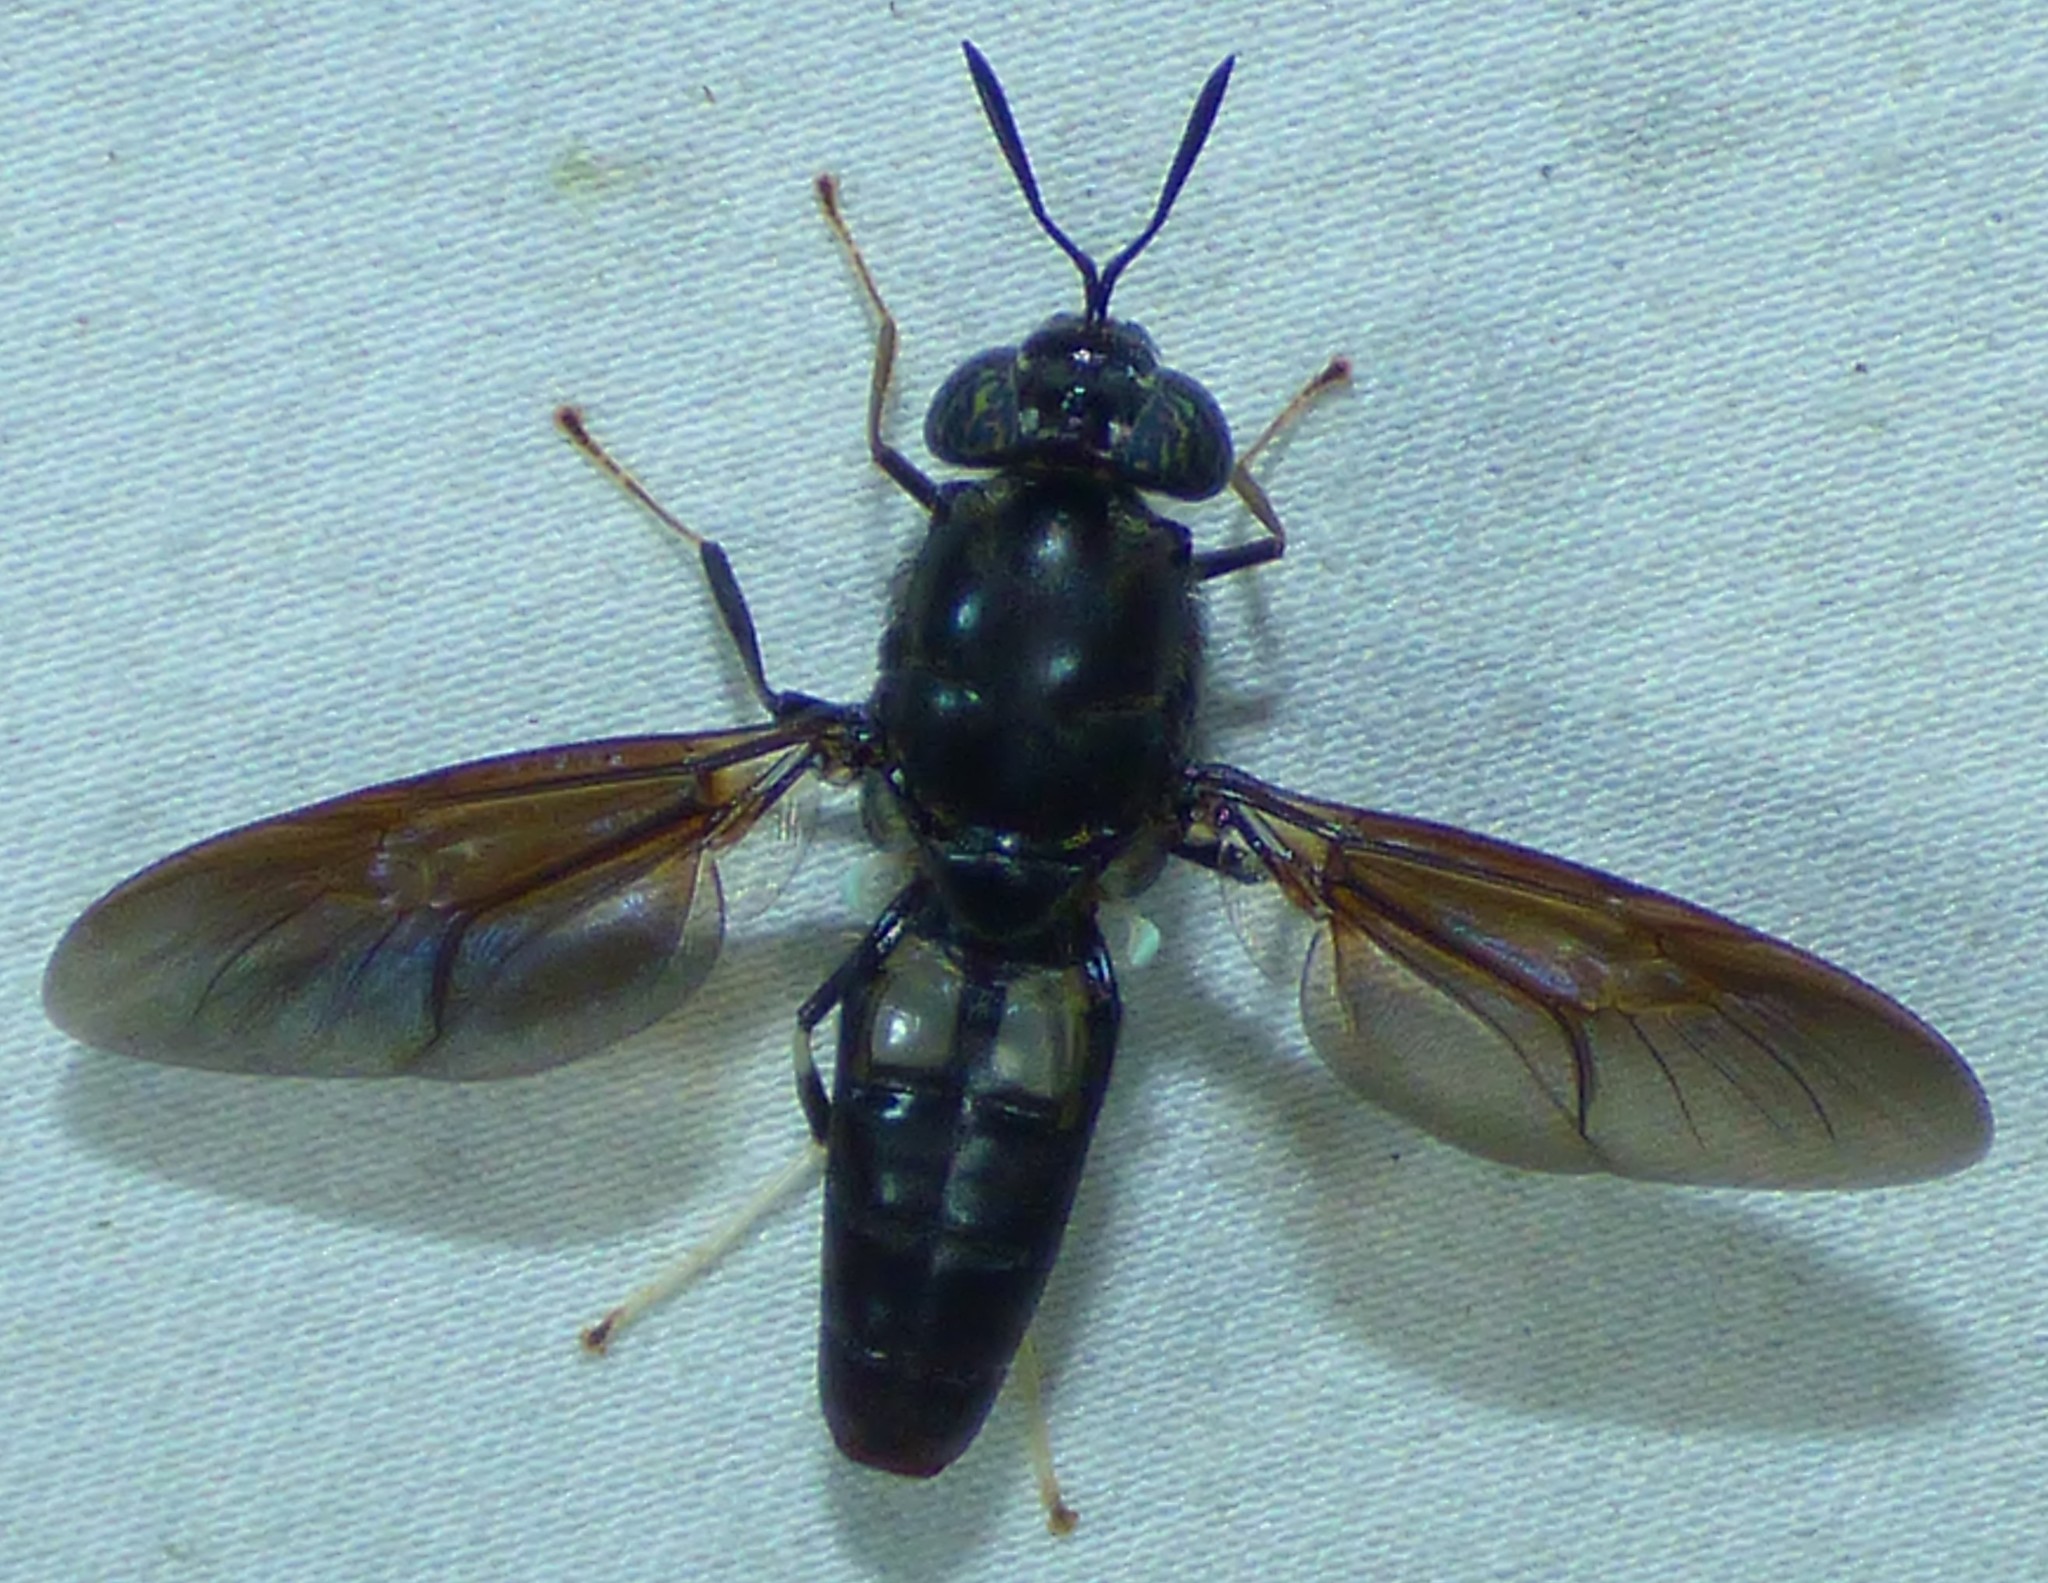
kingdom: Animalia
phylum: Arthropoda
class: Insecta
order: Diptera
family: Stratiomyidae
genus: Hermetia
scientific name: Hermetia illucens
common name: Black soldier fly
